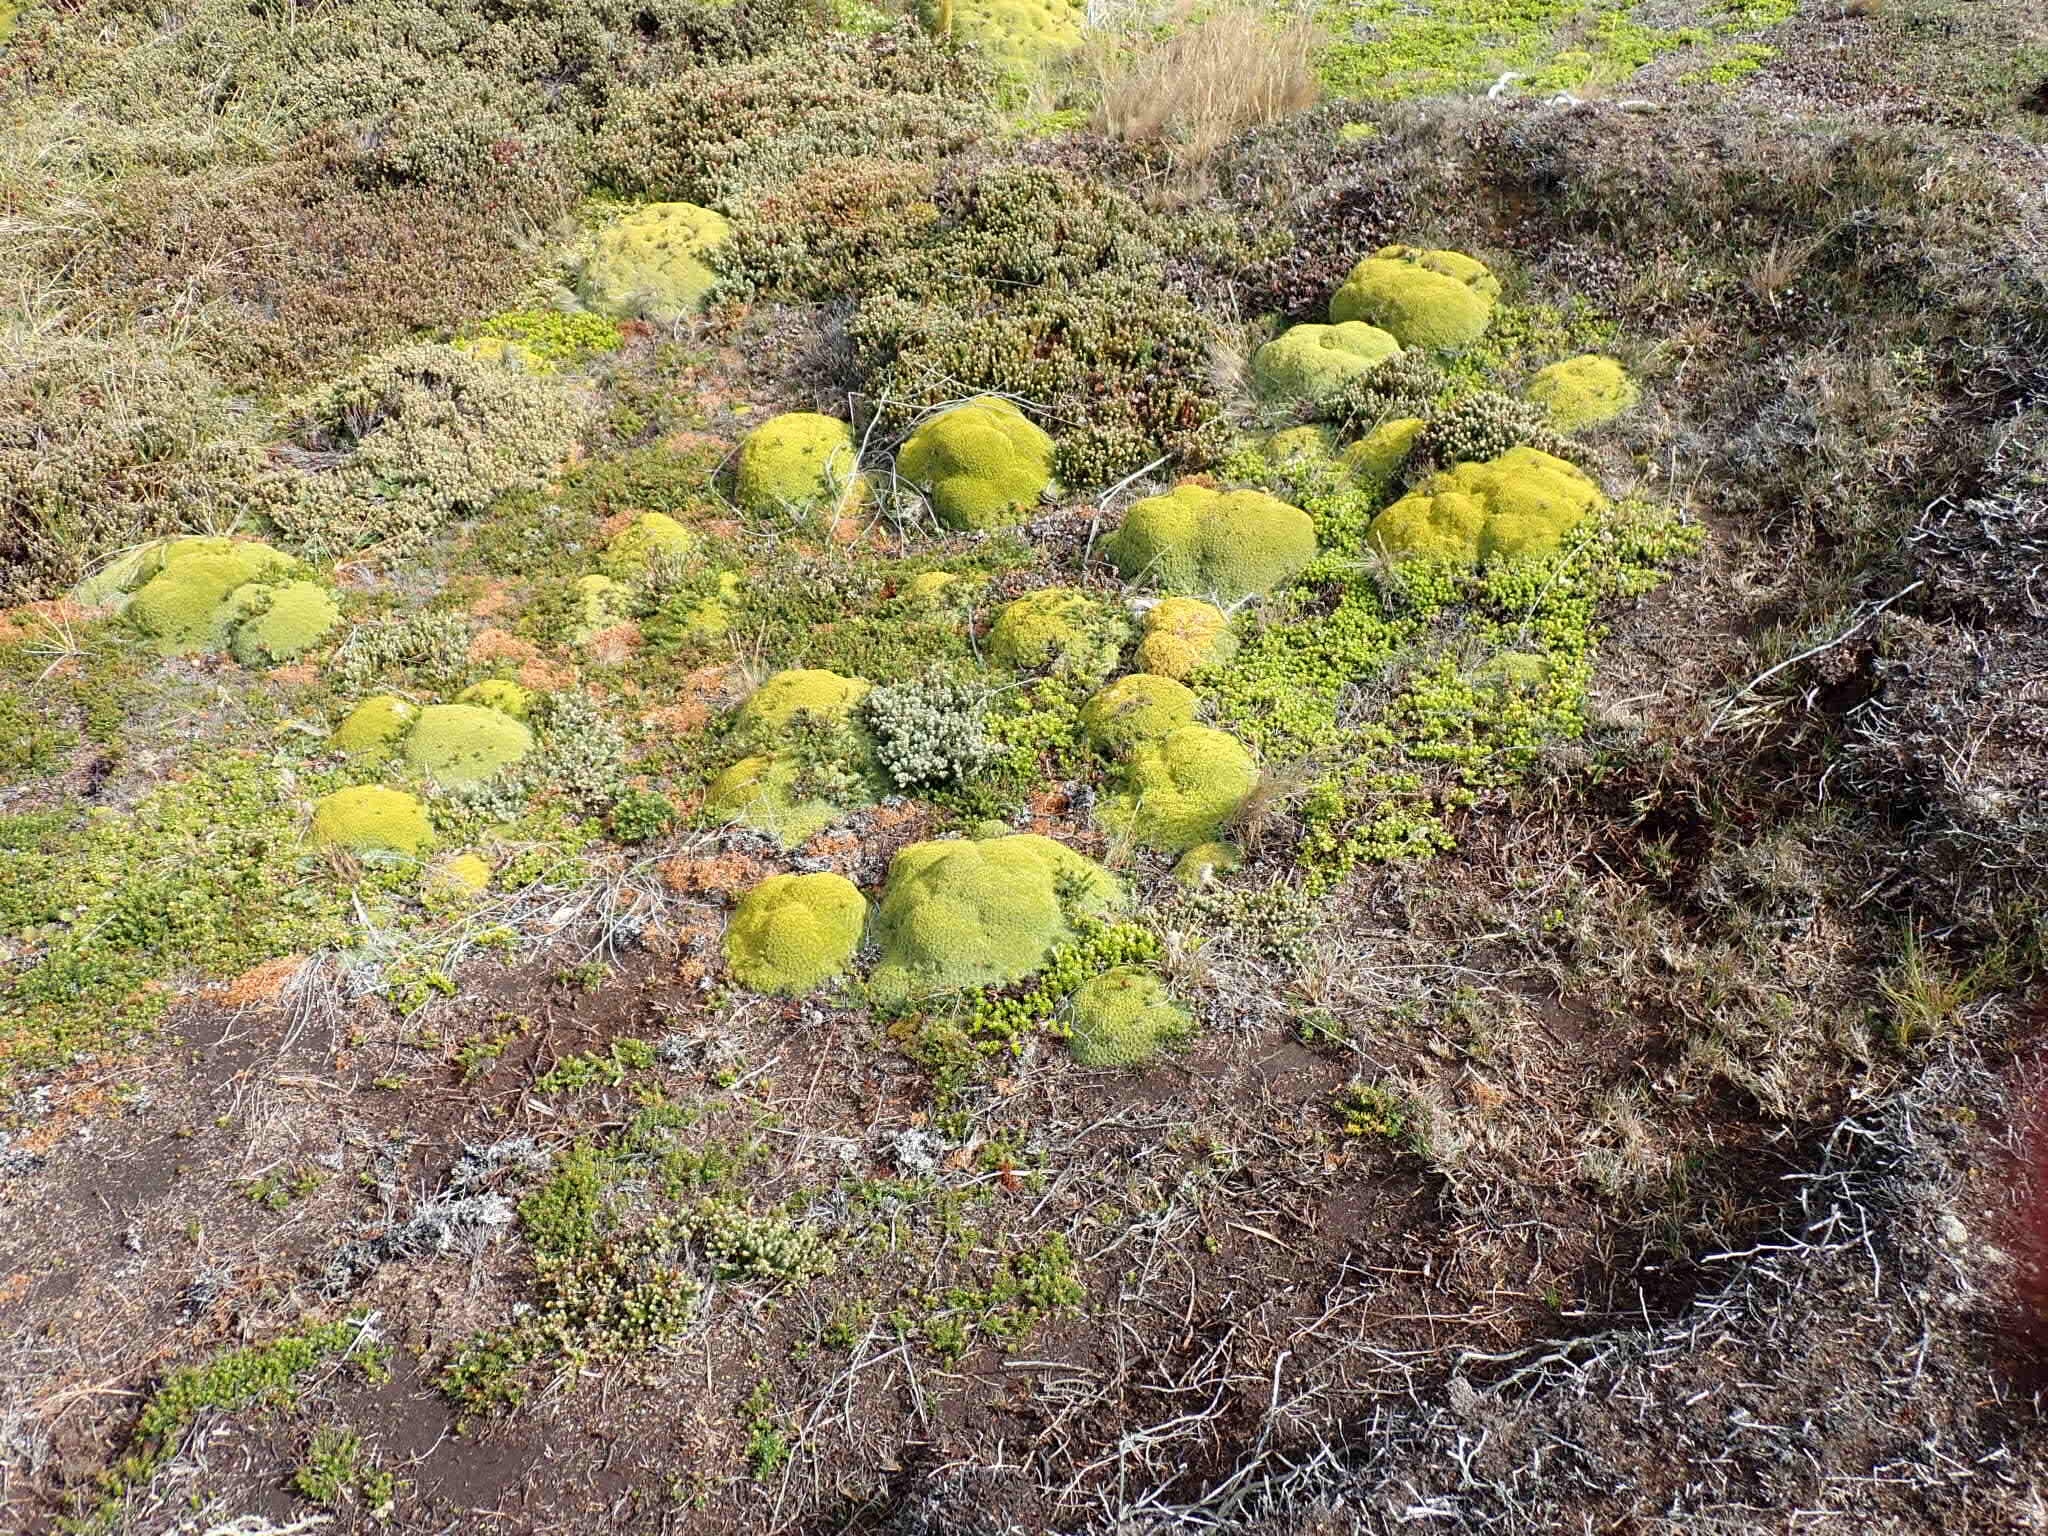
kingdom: Plantae
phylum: Tracheophyta
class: Magnoliopsida
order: Apiales
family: Apiaceae
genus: Bolax
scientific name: Bolax gummifera
